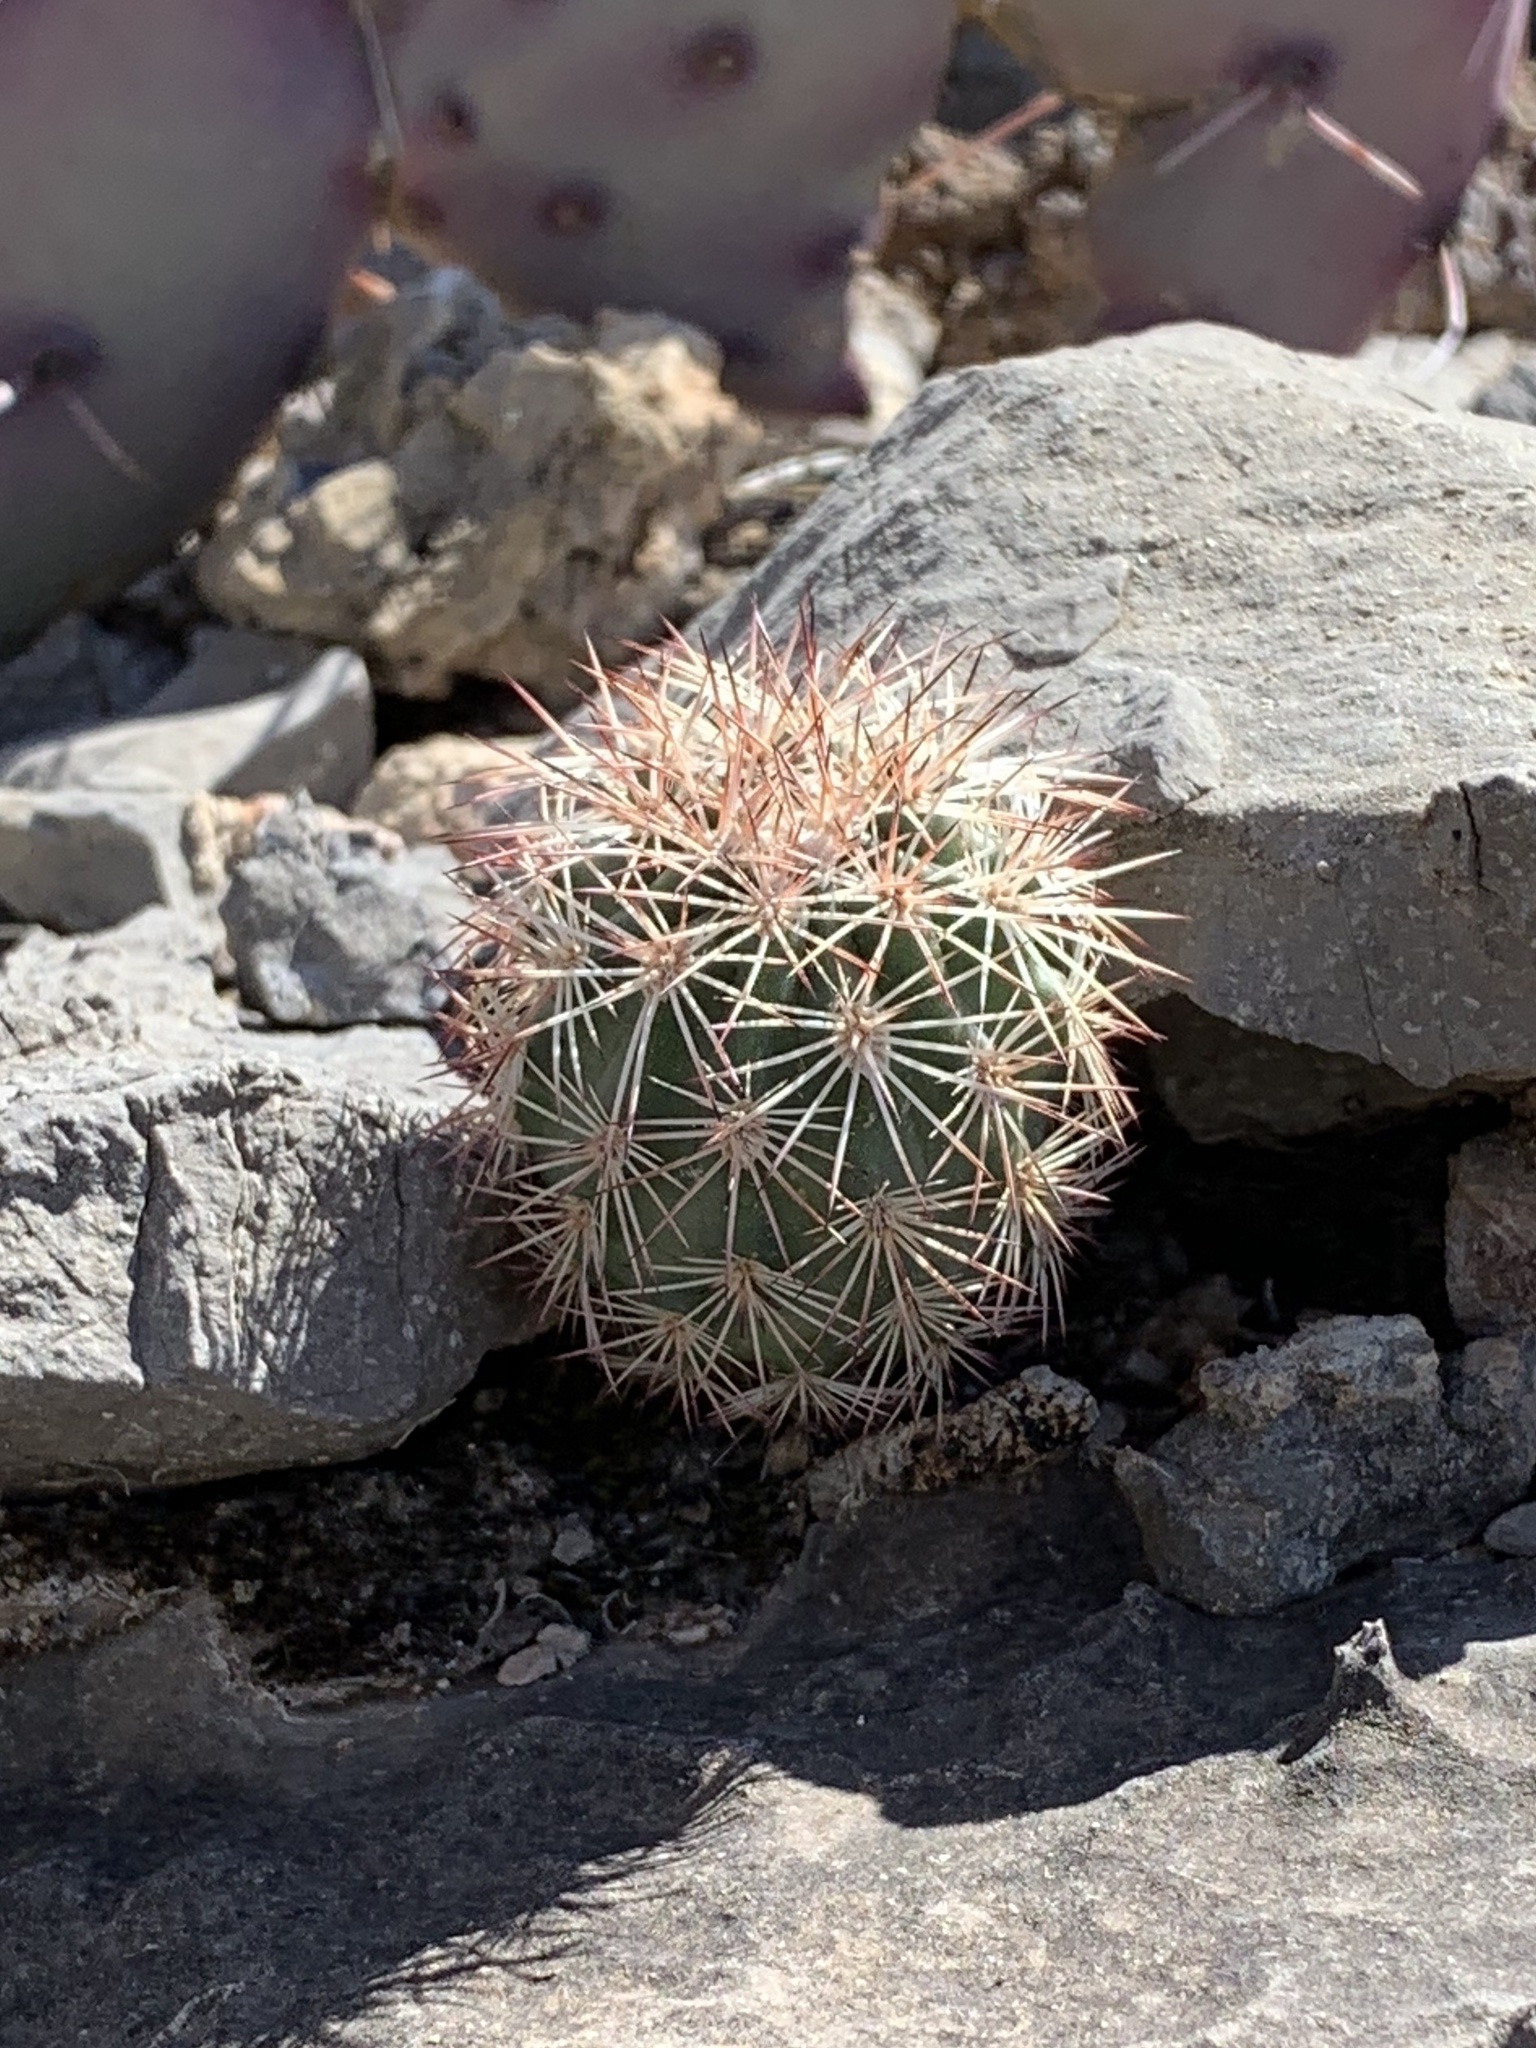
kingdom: Plantae
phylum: Tracheophyta
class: Magnoliopsida
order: Caryophyllales
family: Cactaceae
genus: Echinocereus
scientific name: Echinocereus dasyacanthus
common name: Spiny hedgehog cactus
